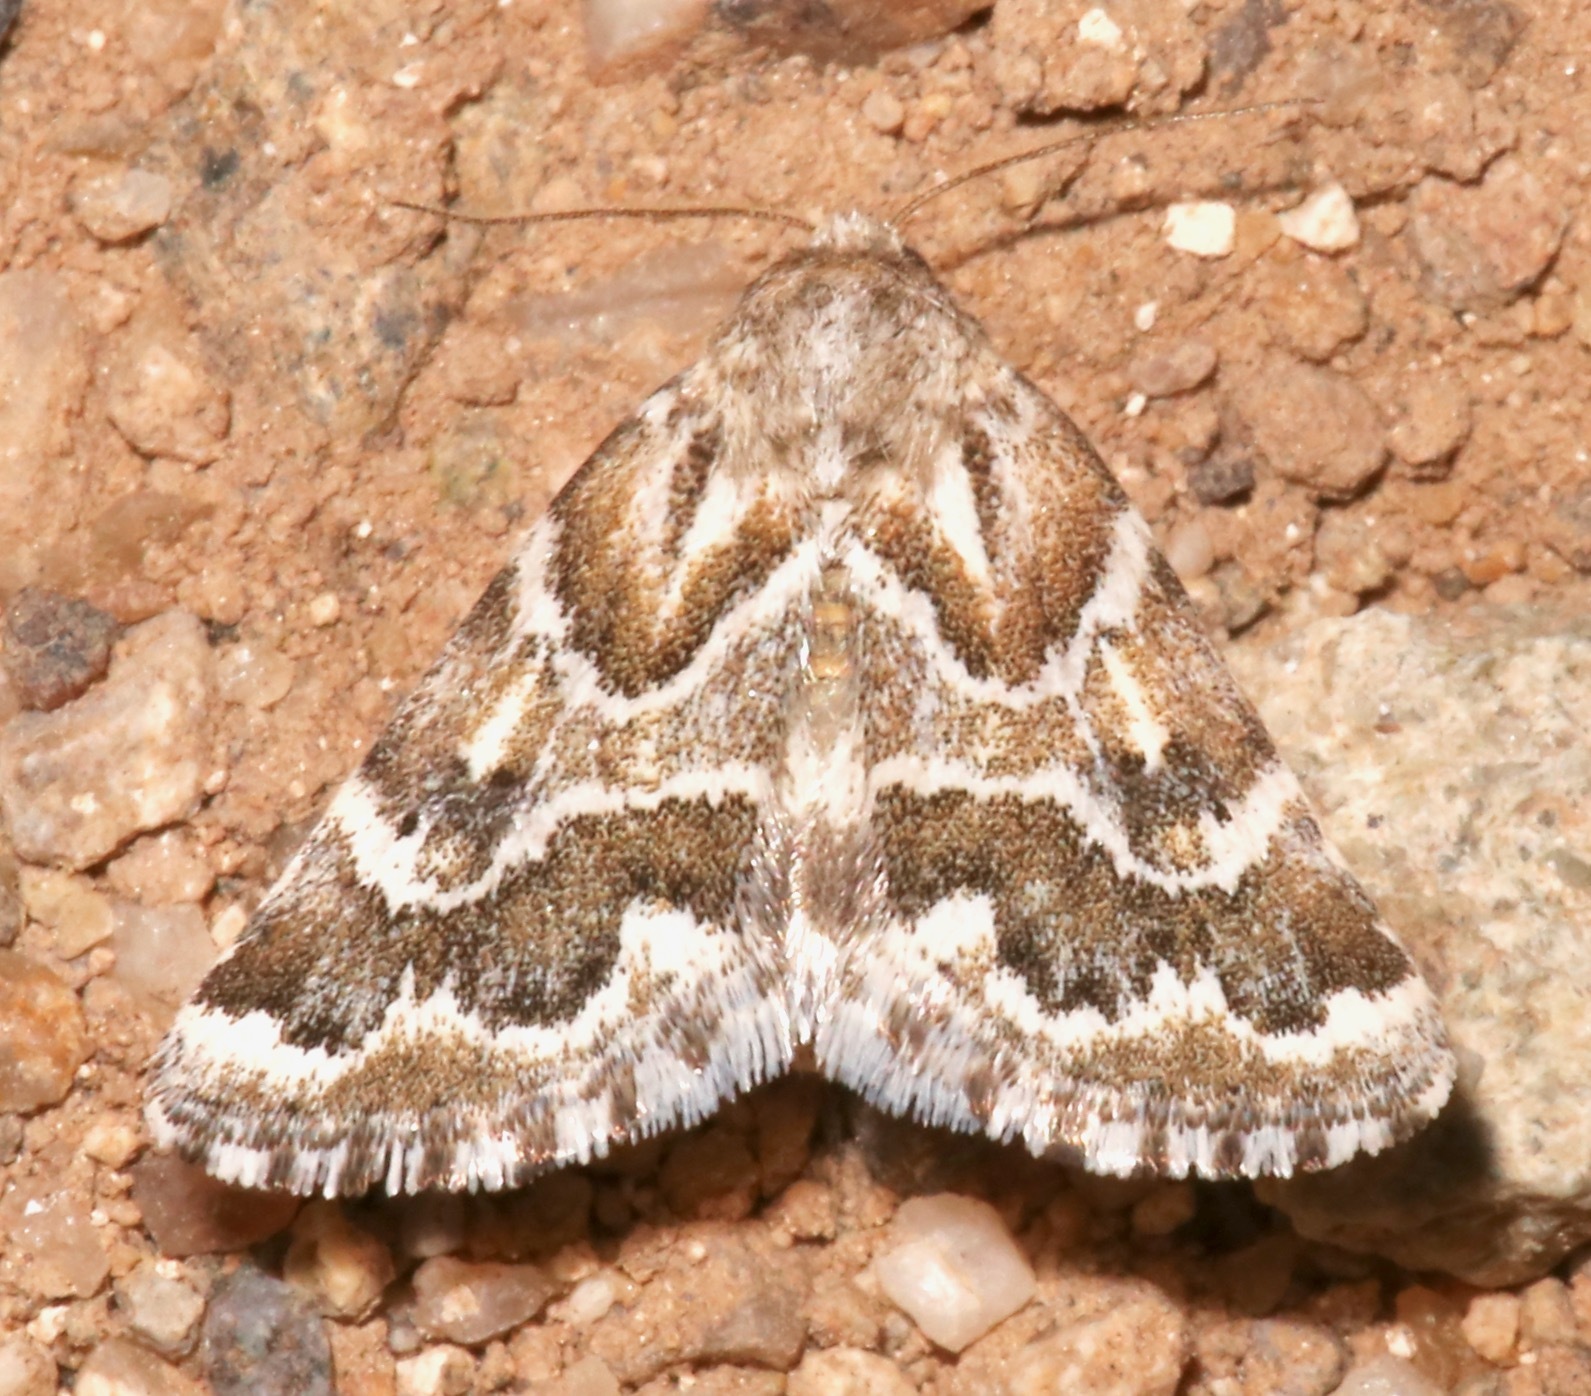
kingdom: Animalia
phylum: Arthropoda
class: Insecta
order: Lepidoptera
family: Noctuidae
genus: Schinia
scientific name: Schinia acutilinea
